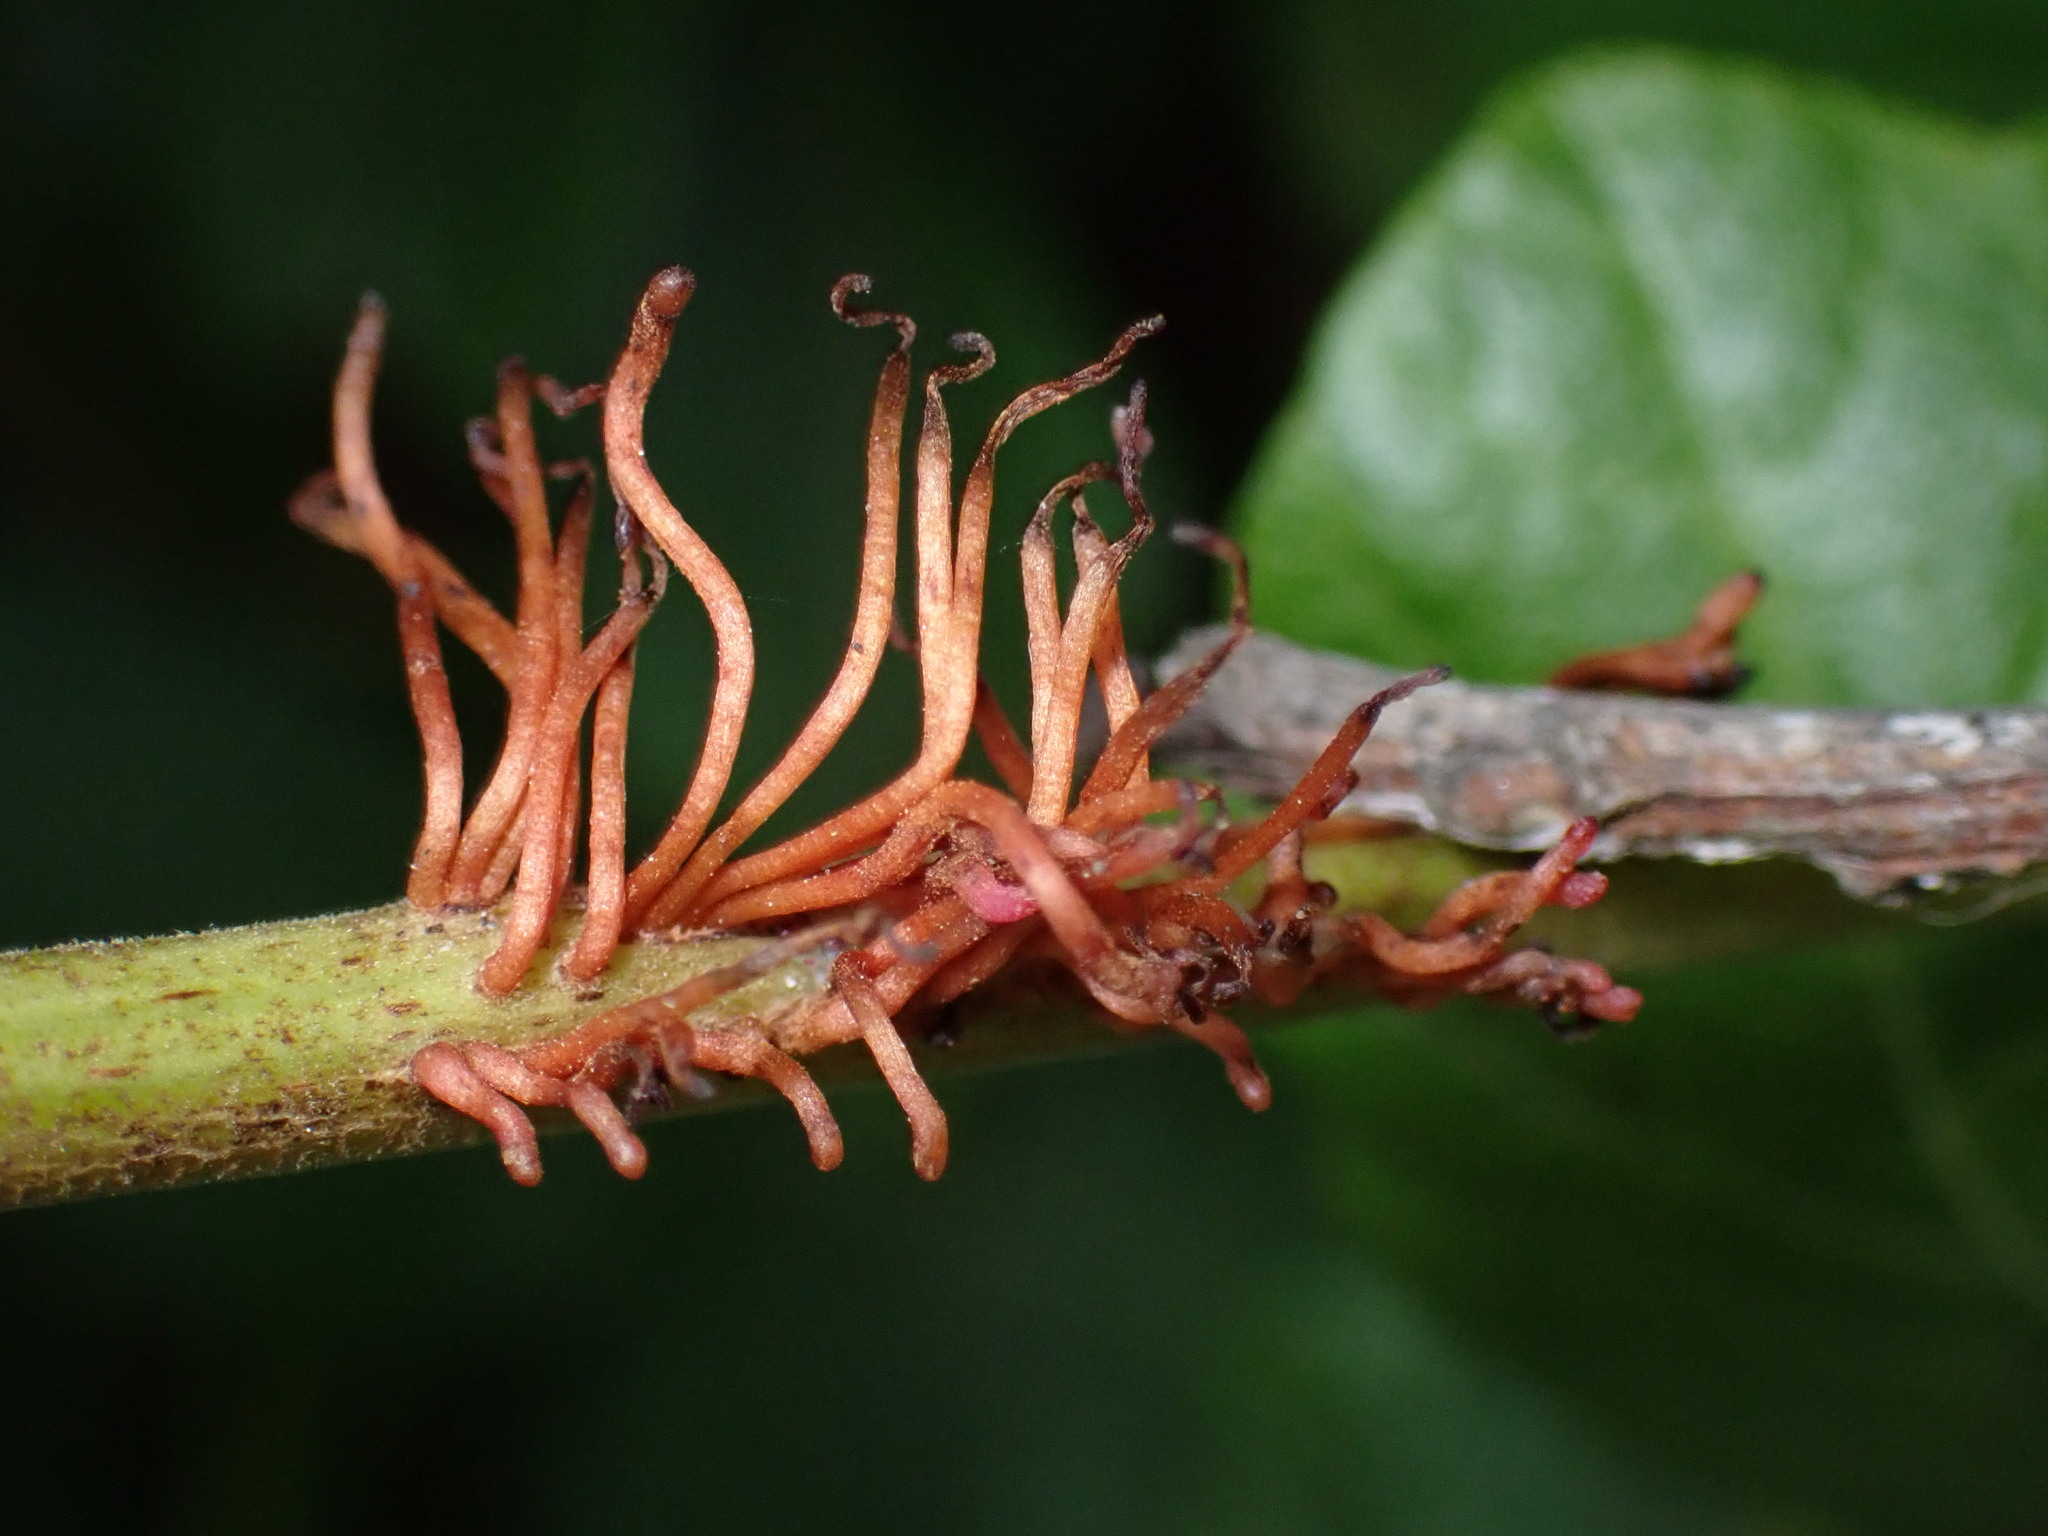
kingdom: Plantae
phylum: Tracheophyta
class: Magnoliopsida
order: Sapindales
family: Anacardiaceae
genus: Toxicodendron
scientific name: Toxicodendron diversilobum
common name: Pacific poison-oak
